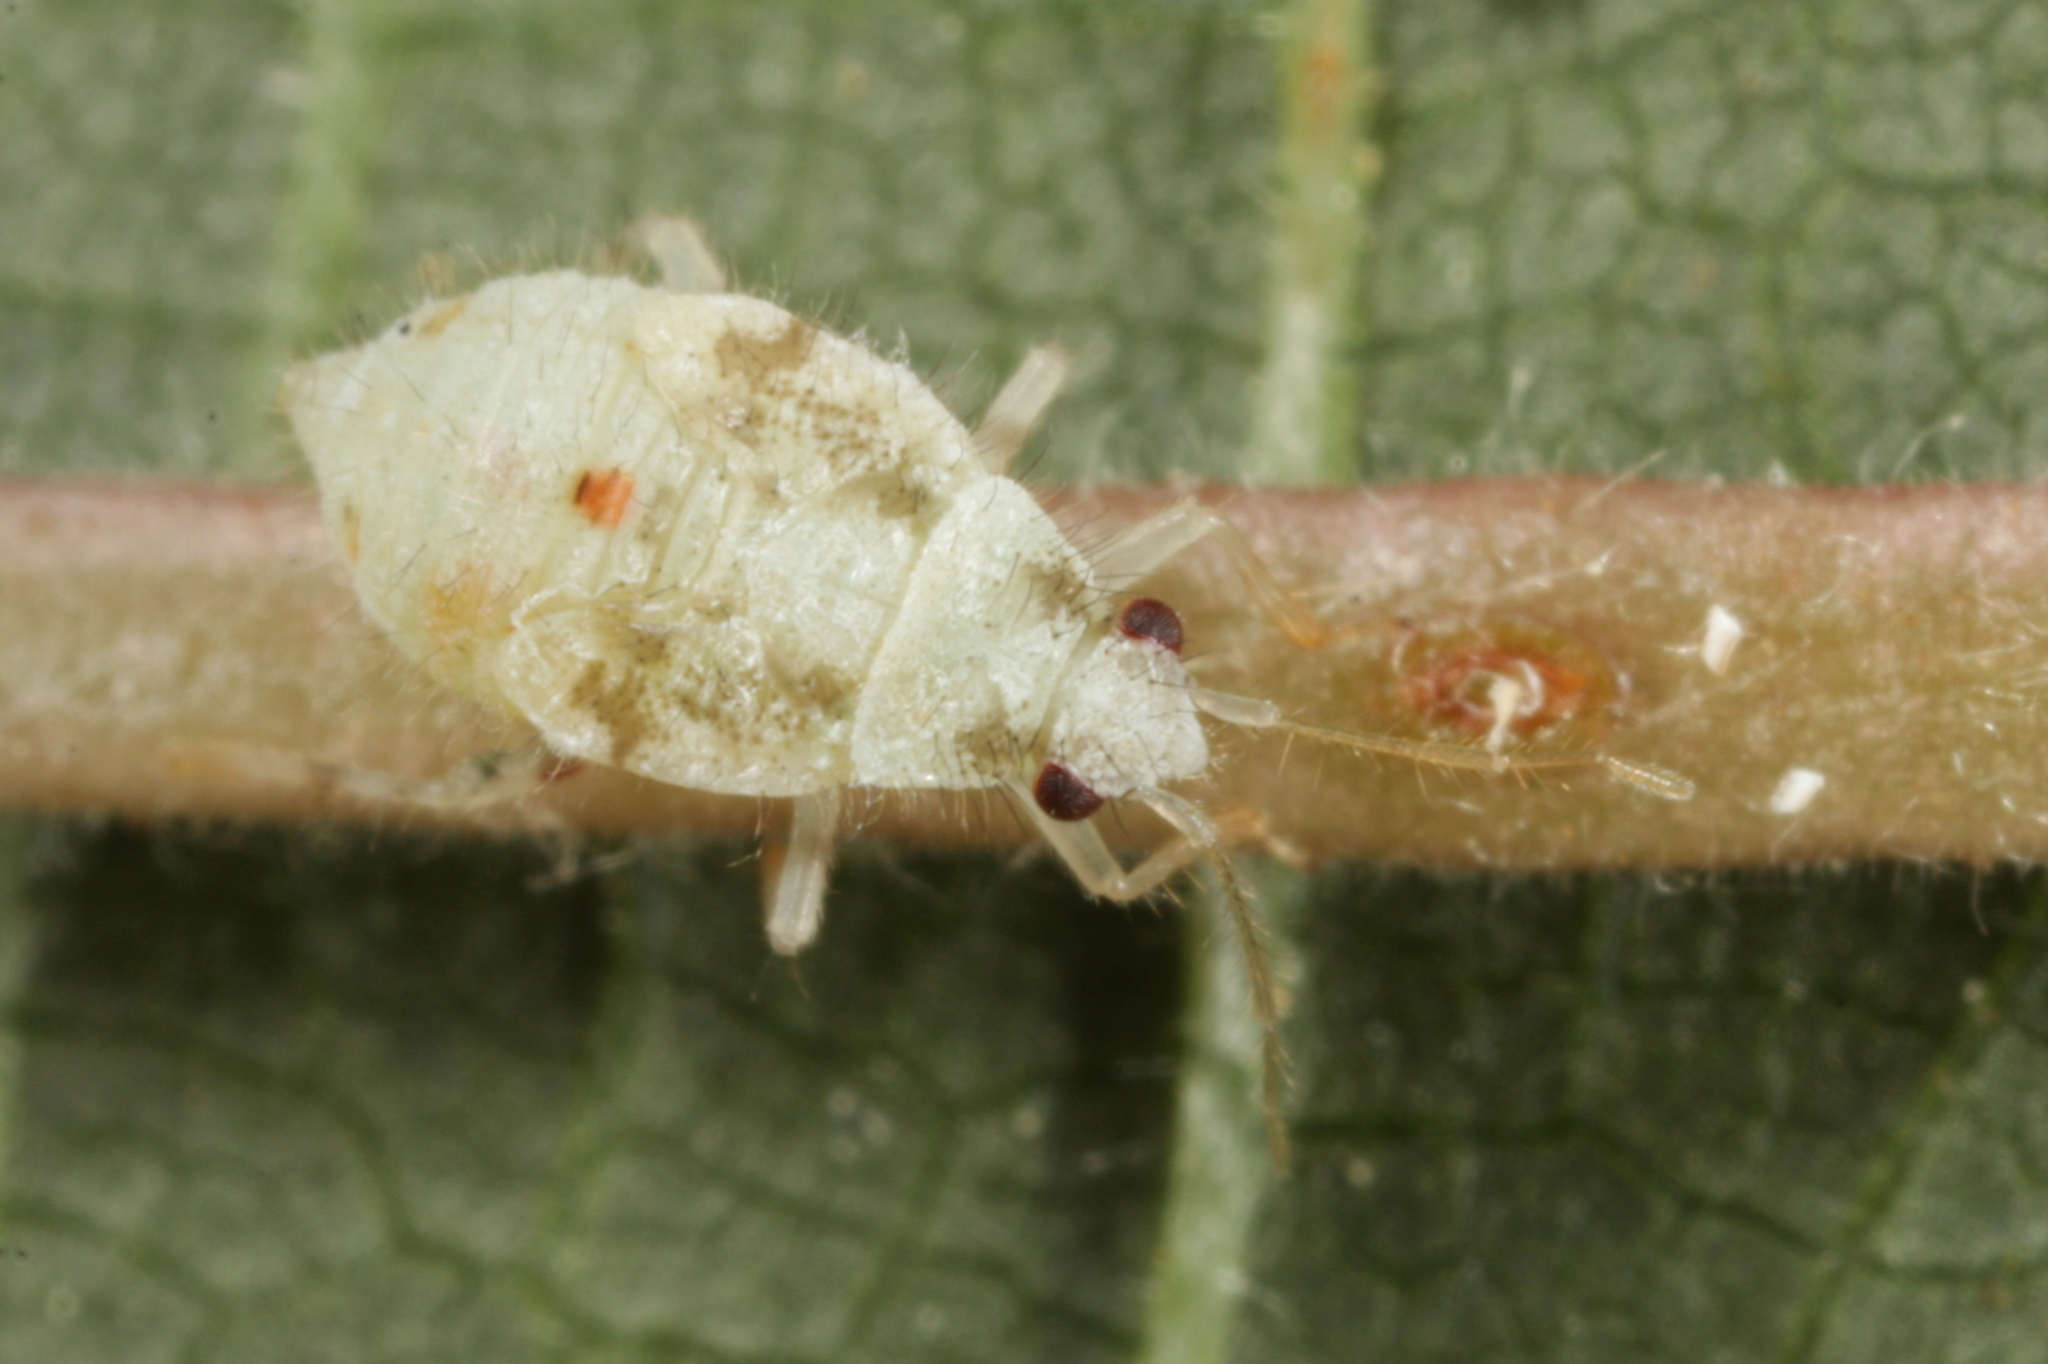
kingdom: Animalia
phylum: Arthropoda
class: Insecta
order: Hemiptera
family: Miridae
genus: Deraeocoris
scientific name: Deraeocoris lutescens
